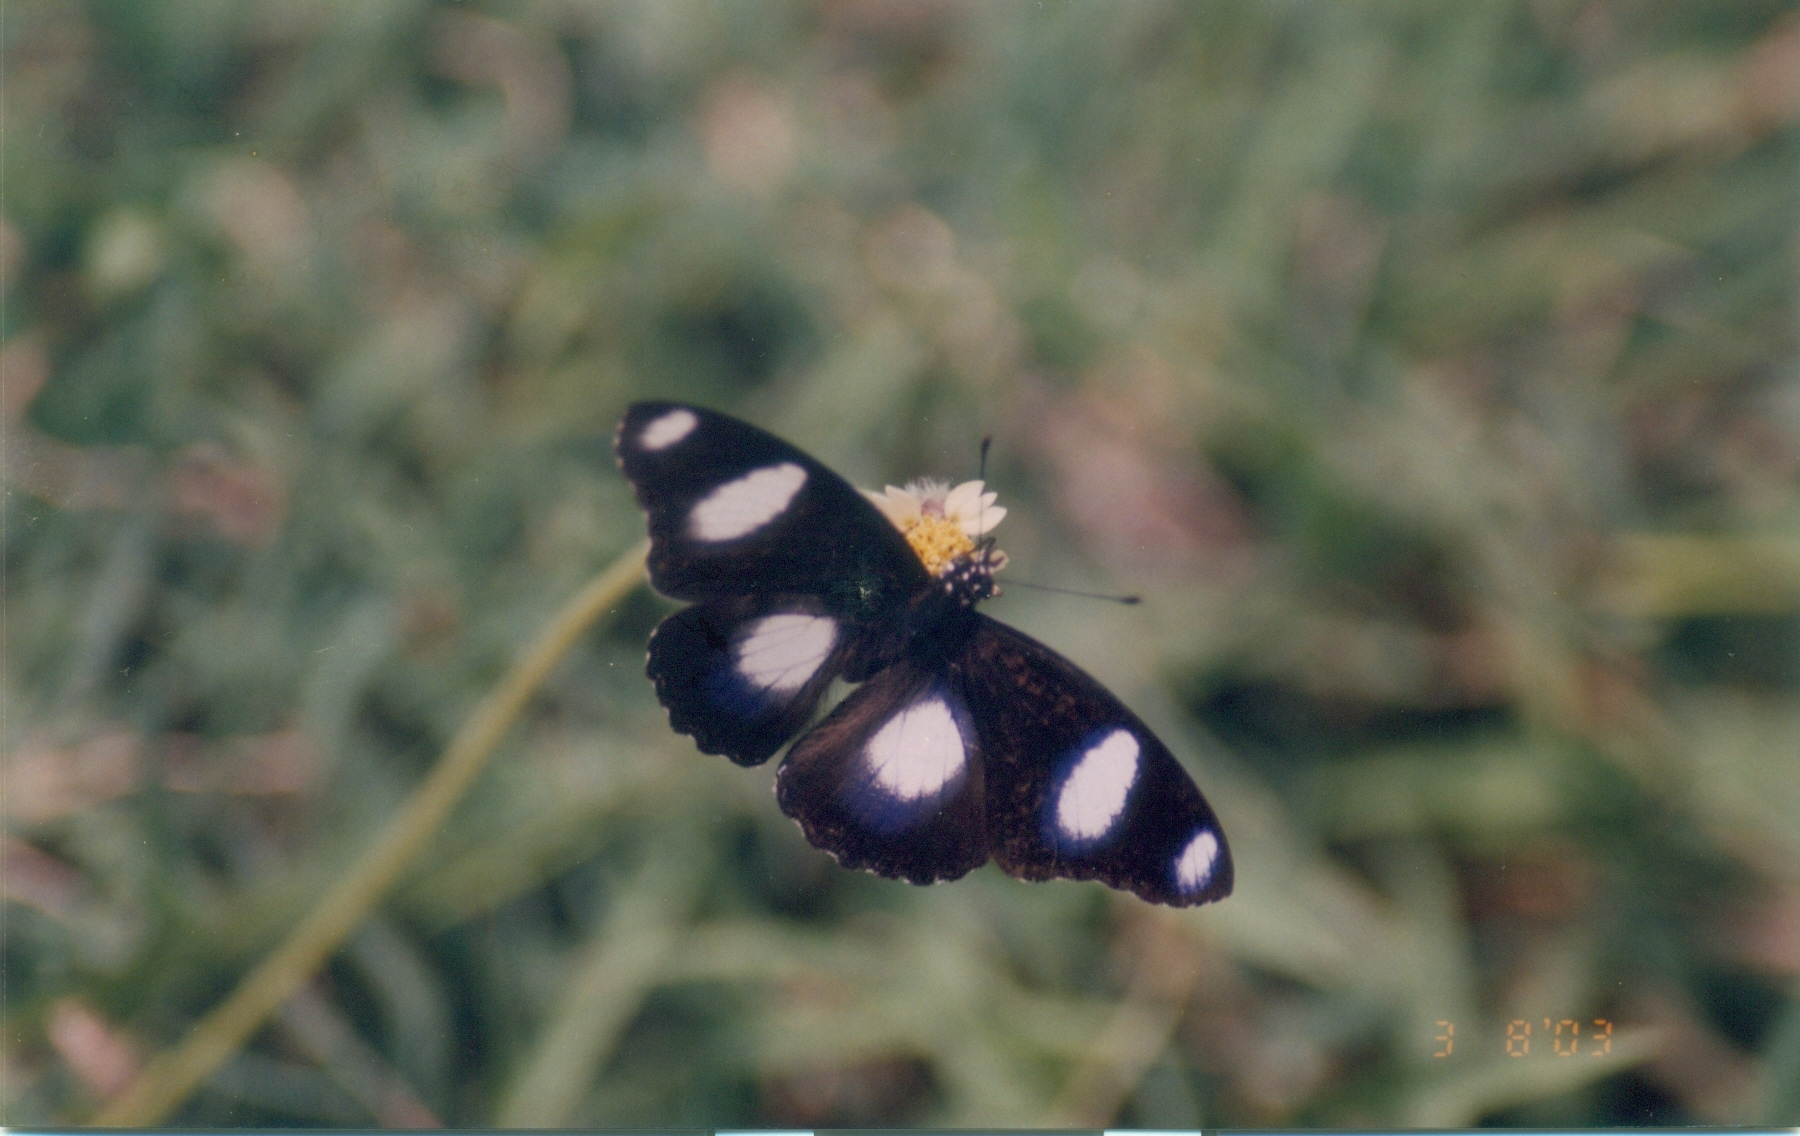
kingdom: Animalia
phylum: Arthropoda
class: Insecta
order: Lepidoptera
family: Nymphalidae
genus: Hypolimnas
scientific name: Hypolimnas misippus
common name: False plain tiger
